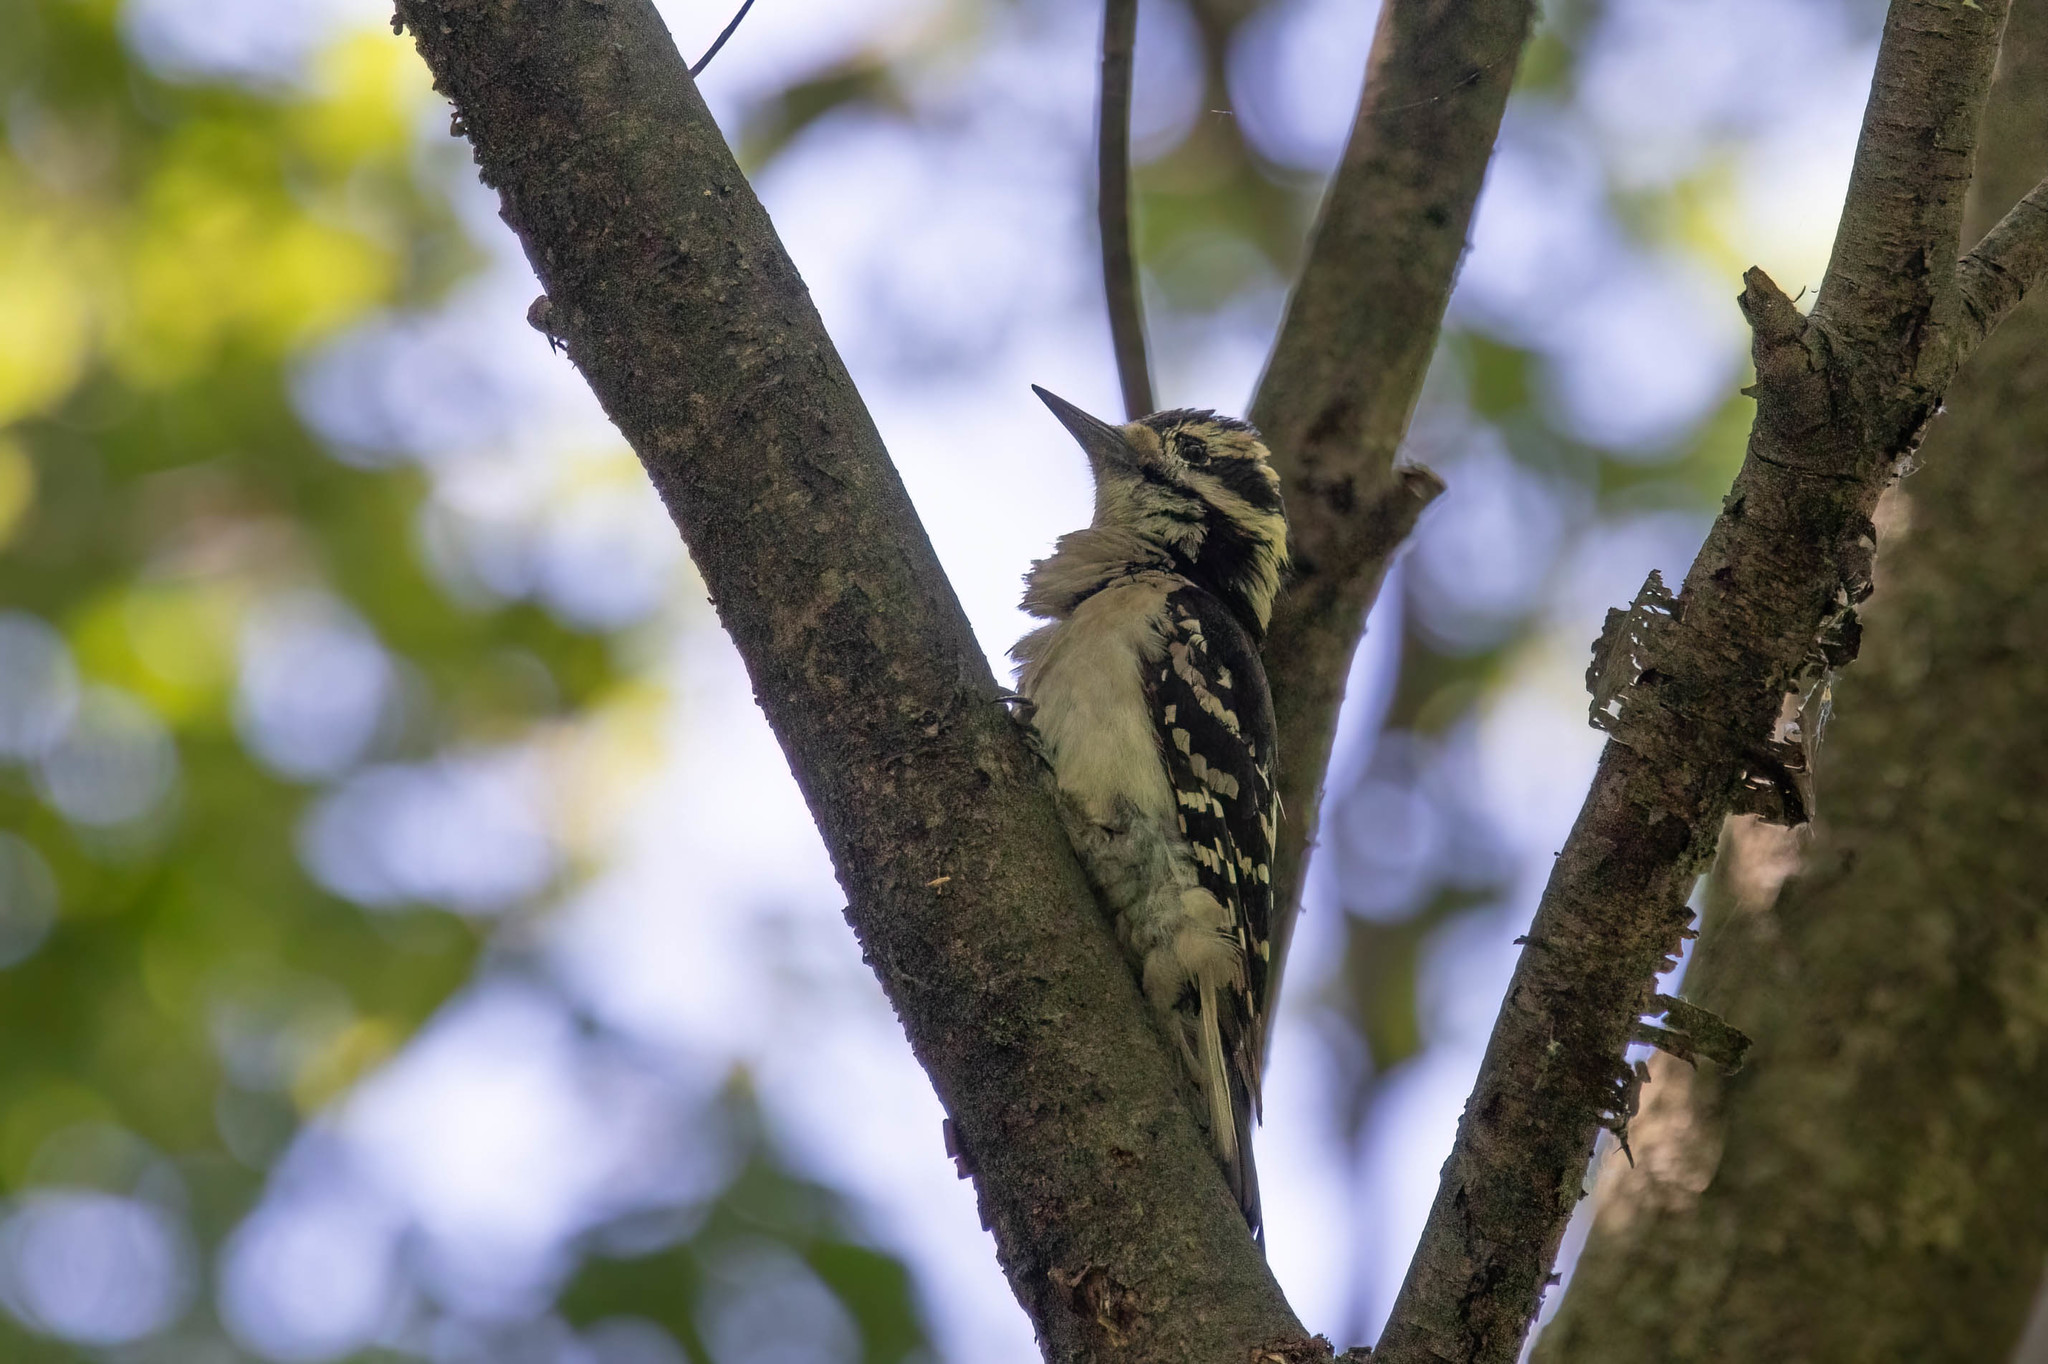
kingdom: Animalia
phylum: Chordata
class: Aves
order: Piciformes
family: Picidae
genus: Leuconotopicus
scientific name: Leuconotopicus villosus
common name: Hairy woodpecker
